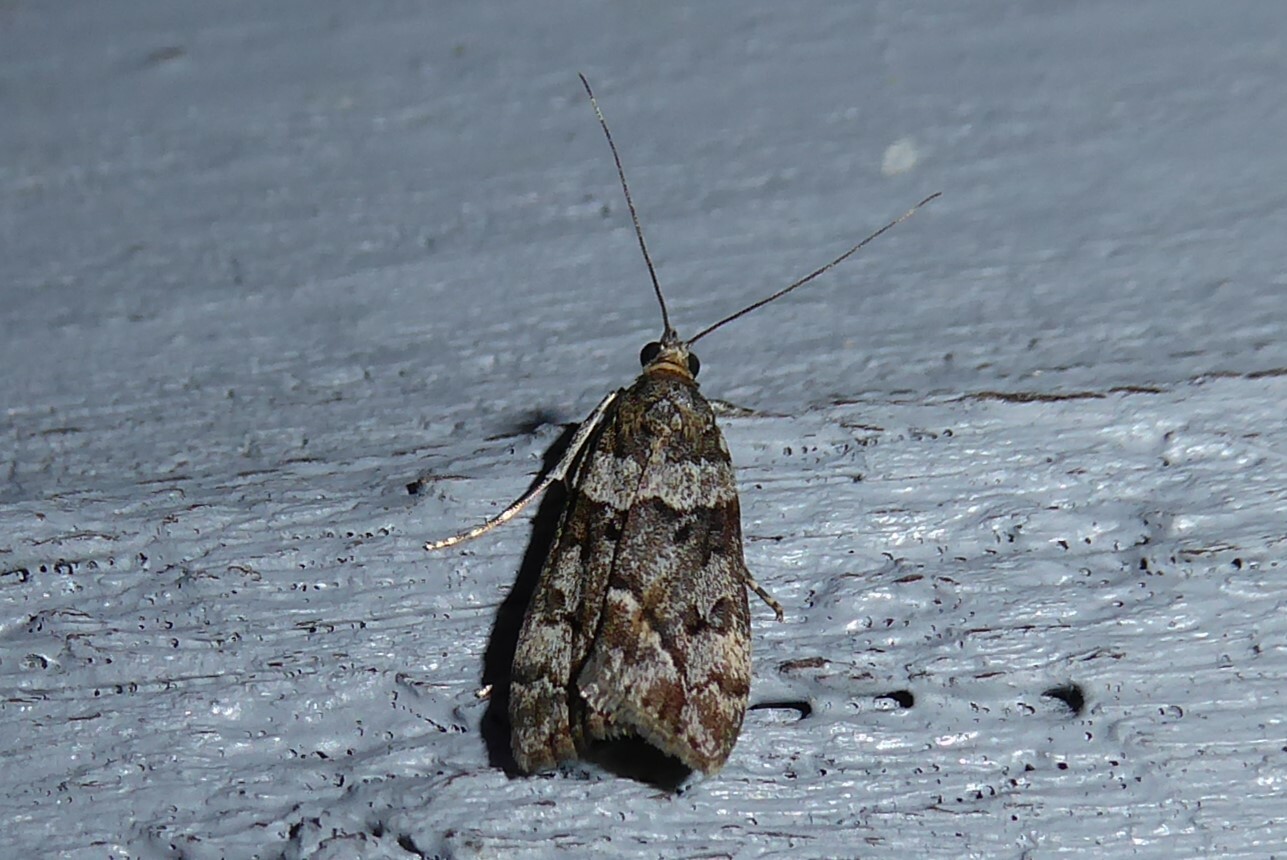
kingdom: Animalia
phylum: Arthropoda
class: Insecta
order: Lepidoptera
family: Crambidae
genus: Eudonia
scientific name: Eudonia submarginalis
